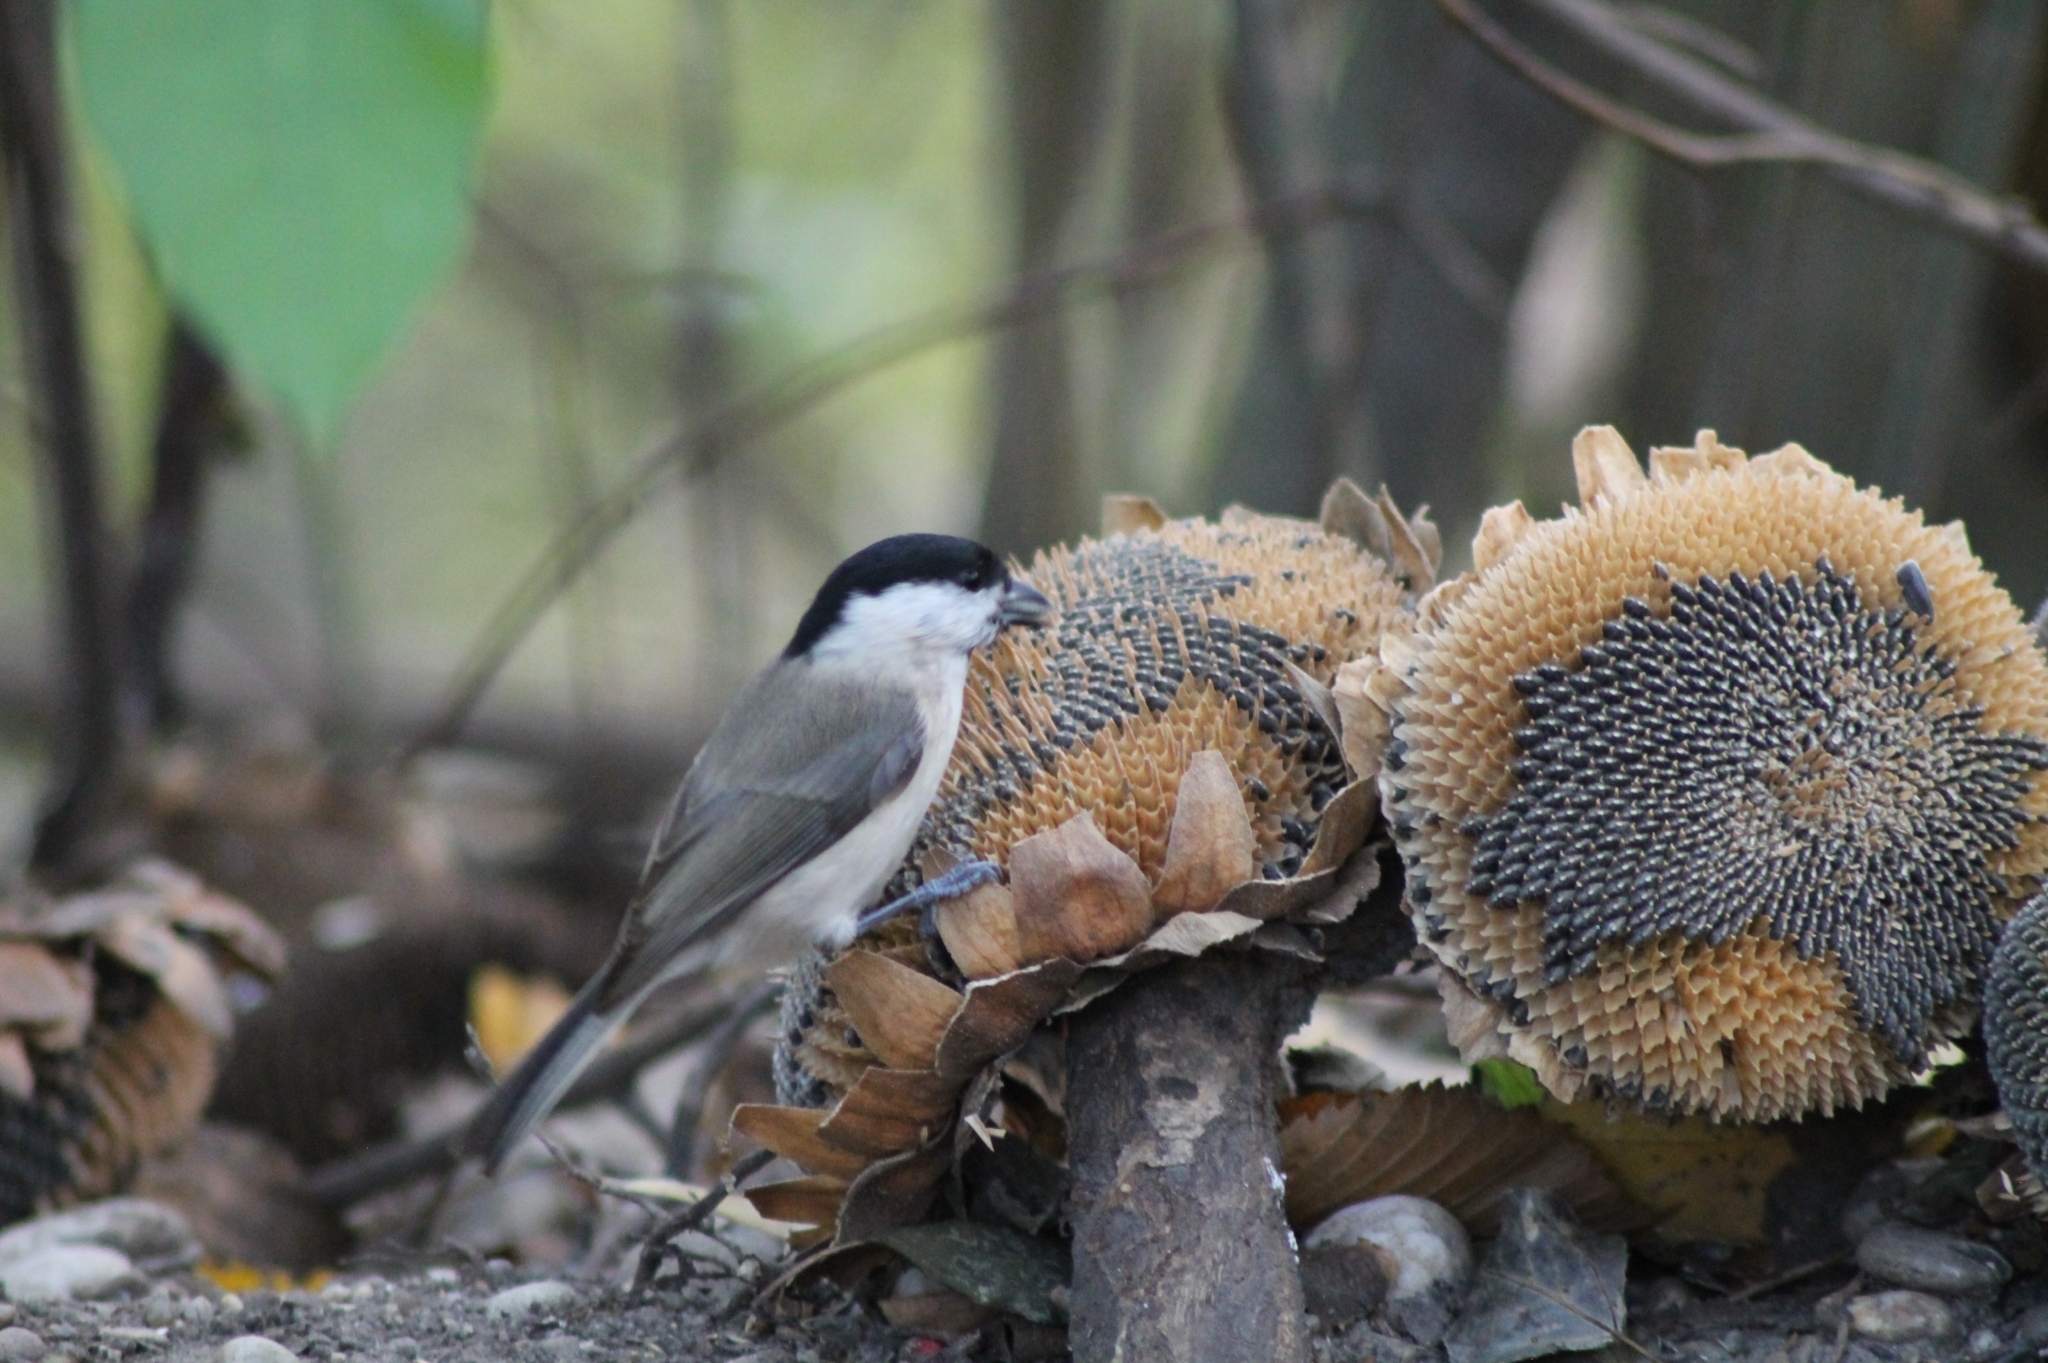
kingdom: Animalia
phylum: Chordata
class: Aves
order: Passeriformes
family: Paridae
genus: Poecile
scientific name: Poecile palustris
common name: Marsh tit
